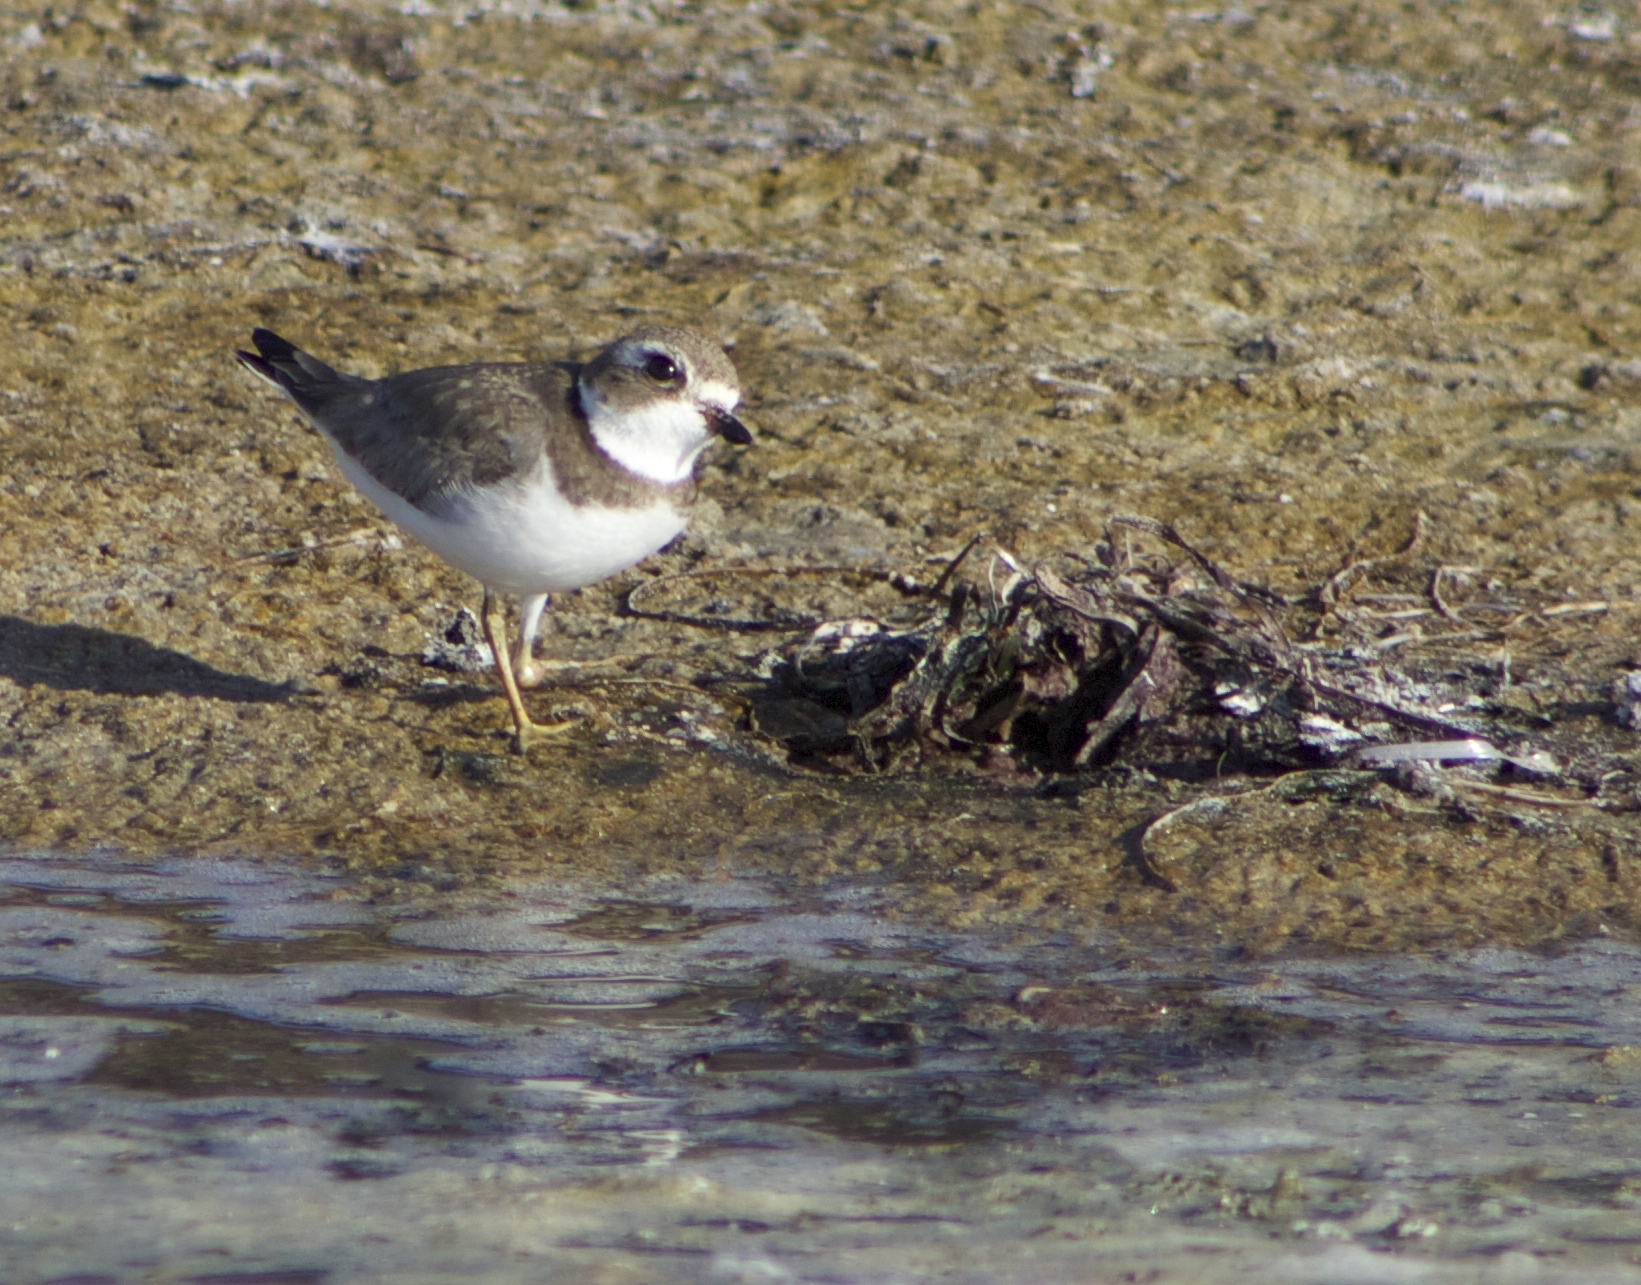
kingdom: Animalia
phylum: Chordata
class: Aves
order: Charadriiformes
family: Charadriidae
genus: Charadrius
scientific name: Charadrius semipalmatus
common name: Semipalmated plover
